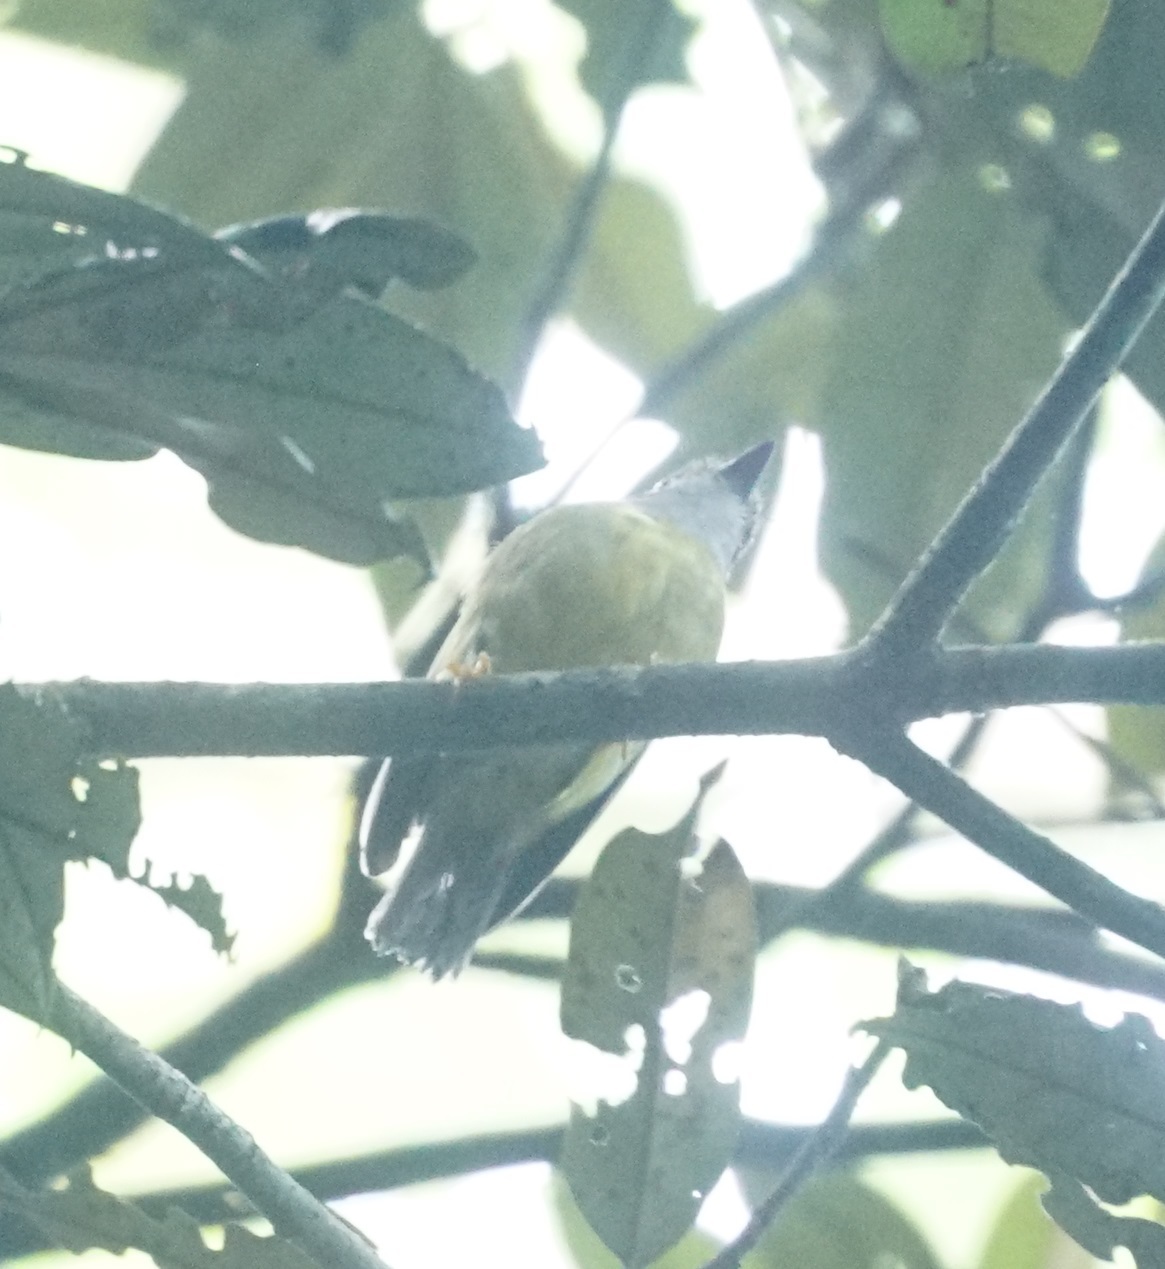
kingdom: Animalia
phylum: Chordata
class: Aves
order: Passeriformes
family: Petroicidae
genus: Eopsaltria
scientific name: Eopsaltria
